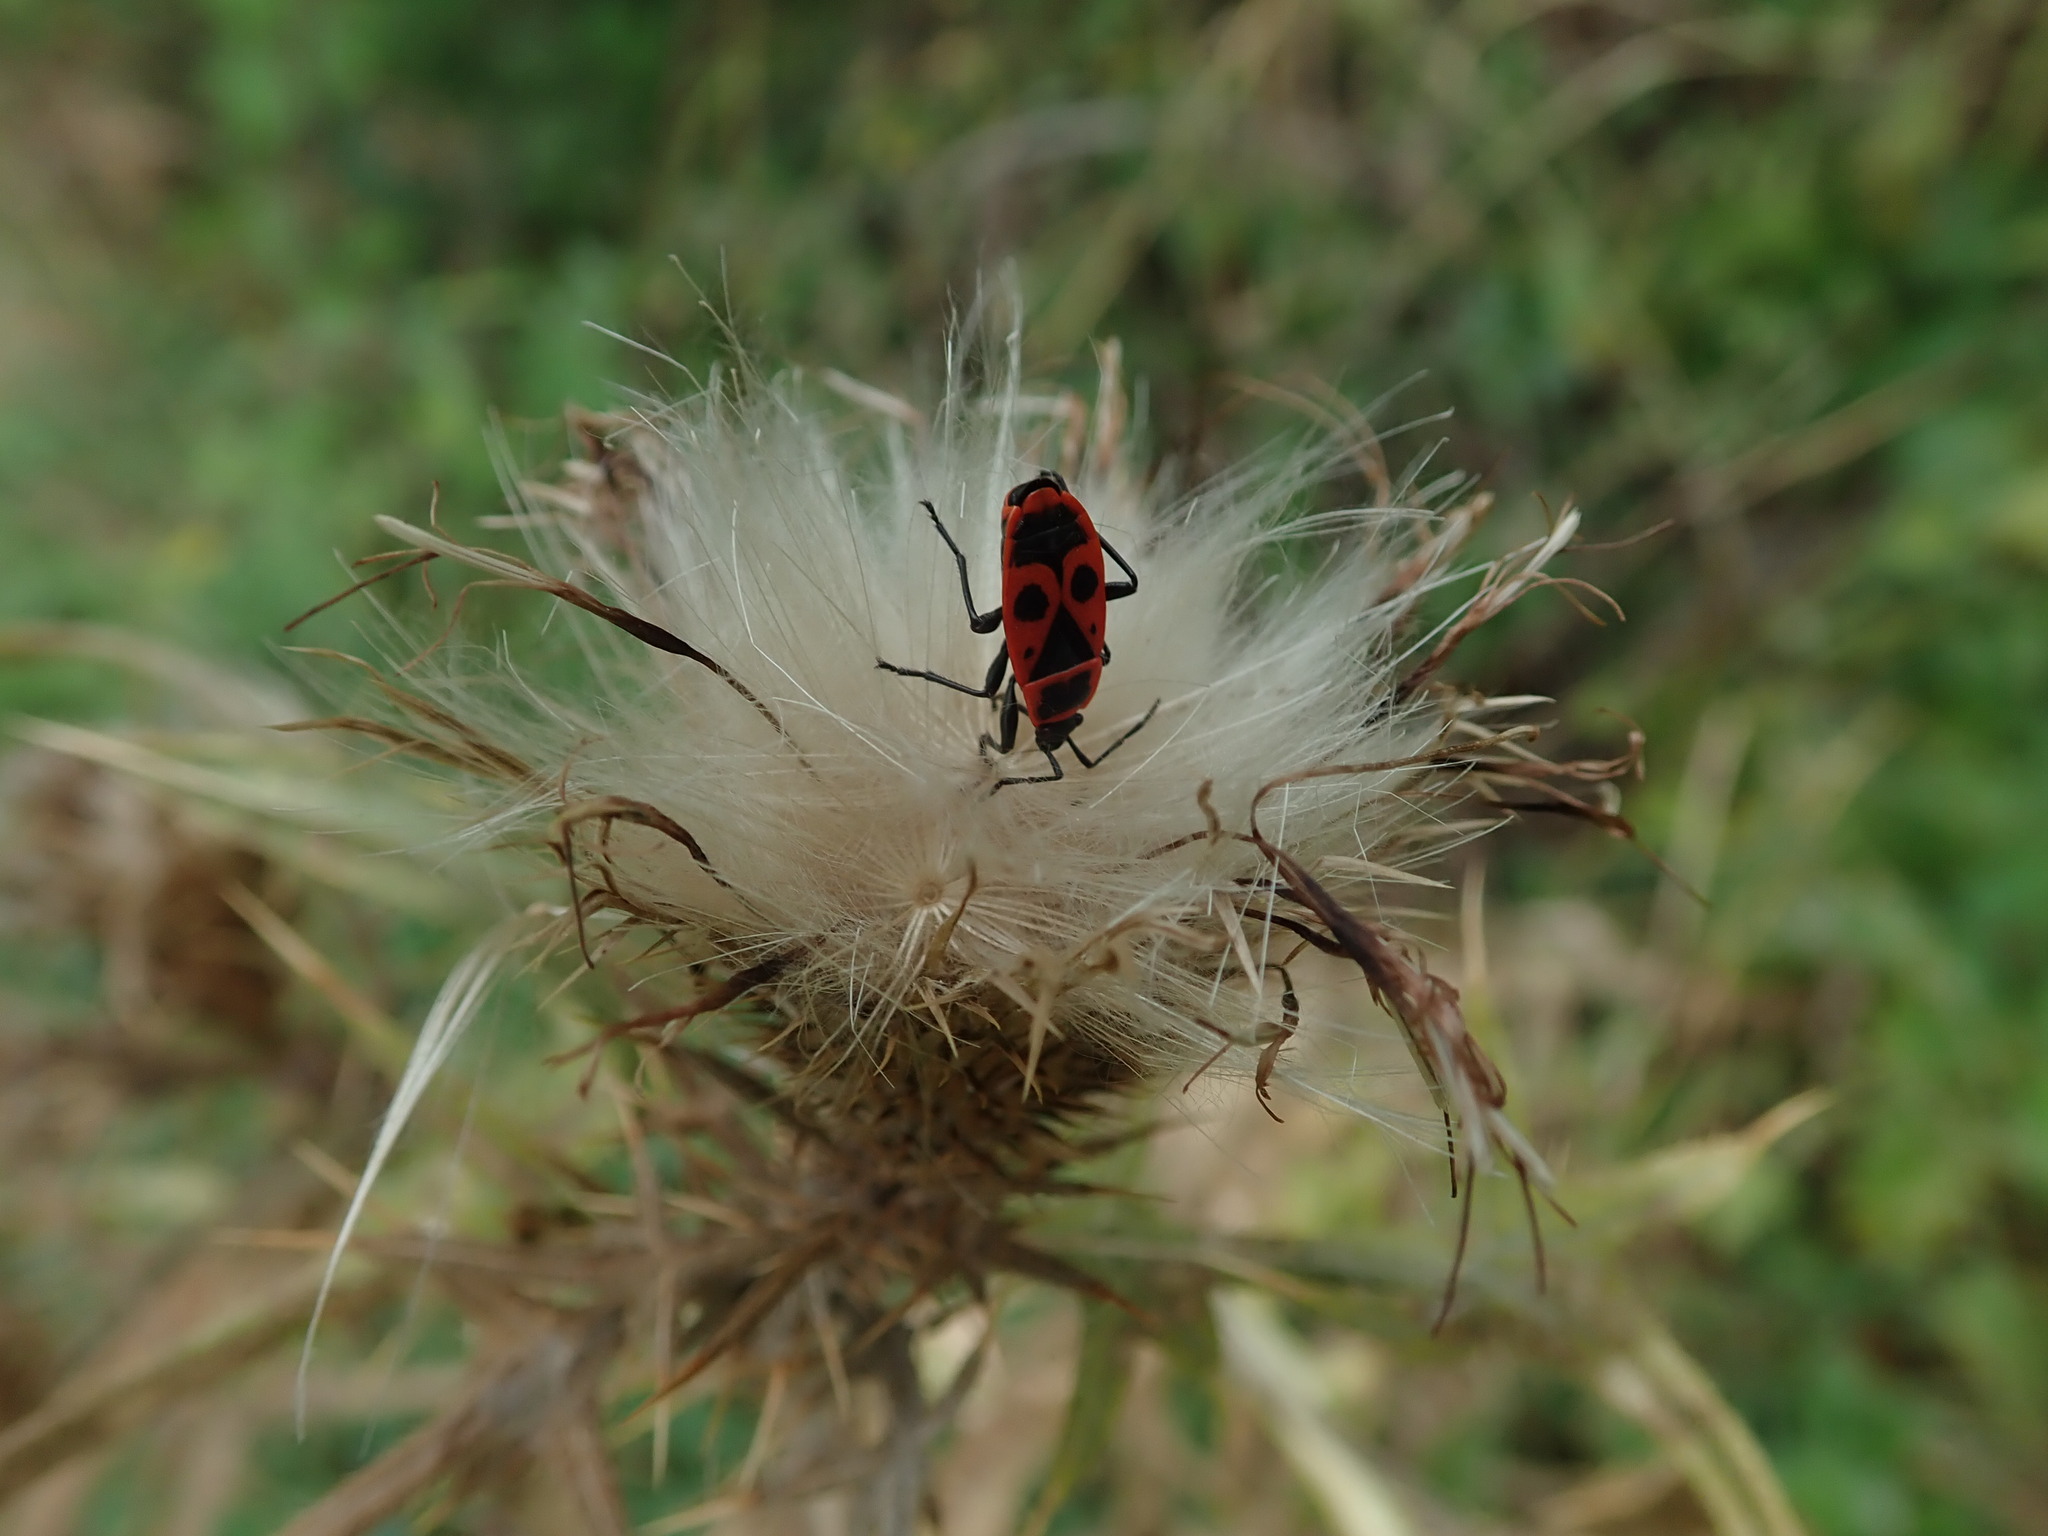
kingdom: Animalia
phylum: Arthropoda
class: Insecta
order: Hemiptera
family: Pyrrhocoridae
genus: Pyrrhocoris
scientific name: Pyrrhocoris apterus
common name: Firebug
